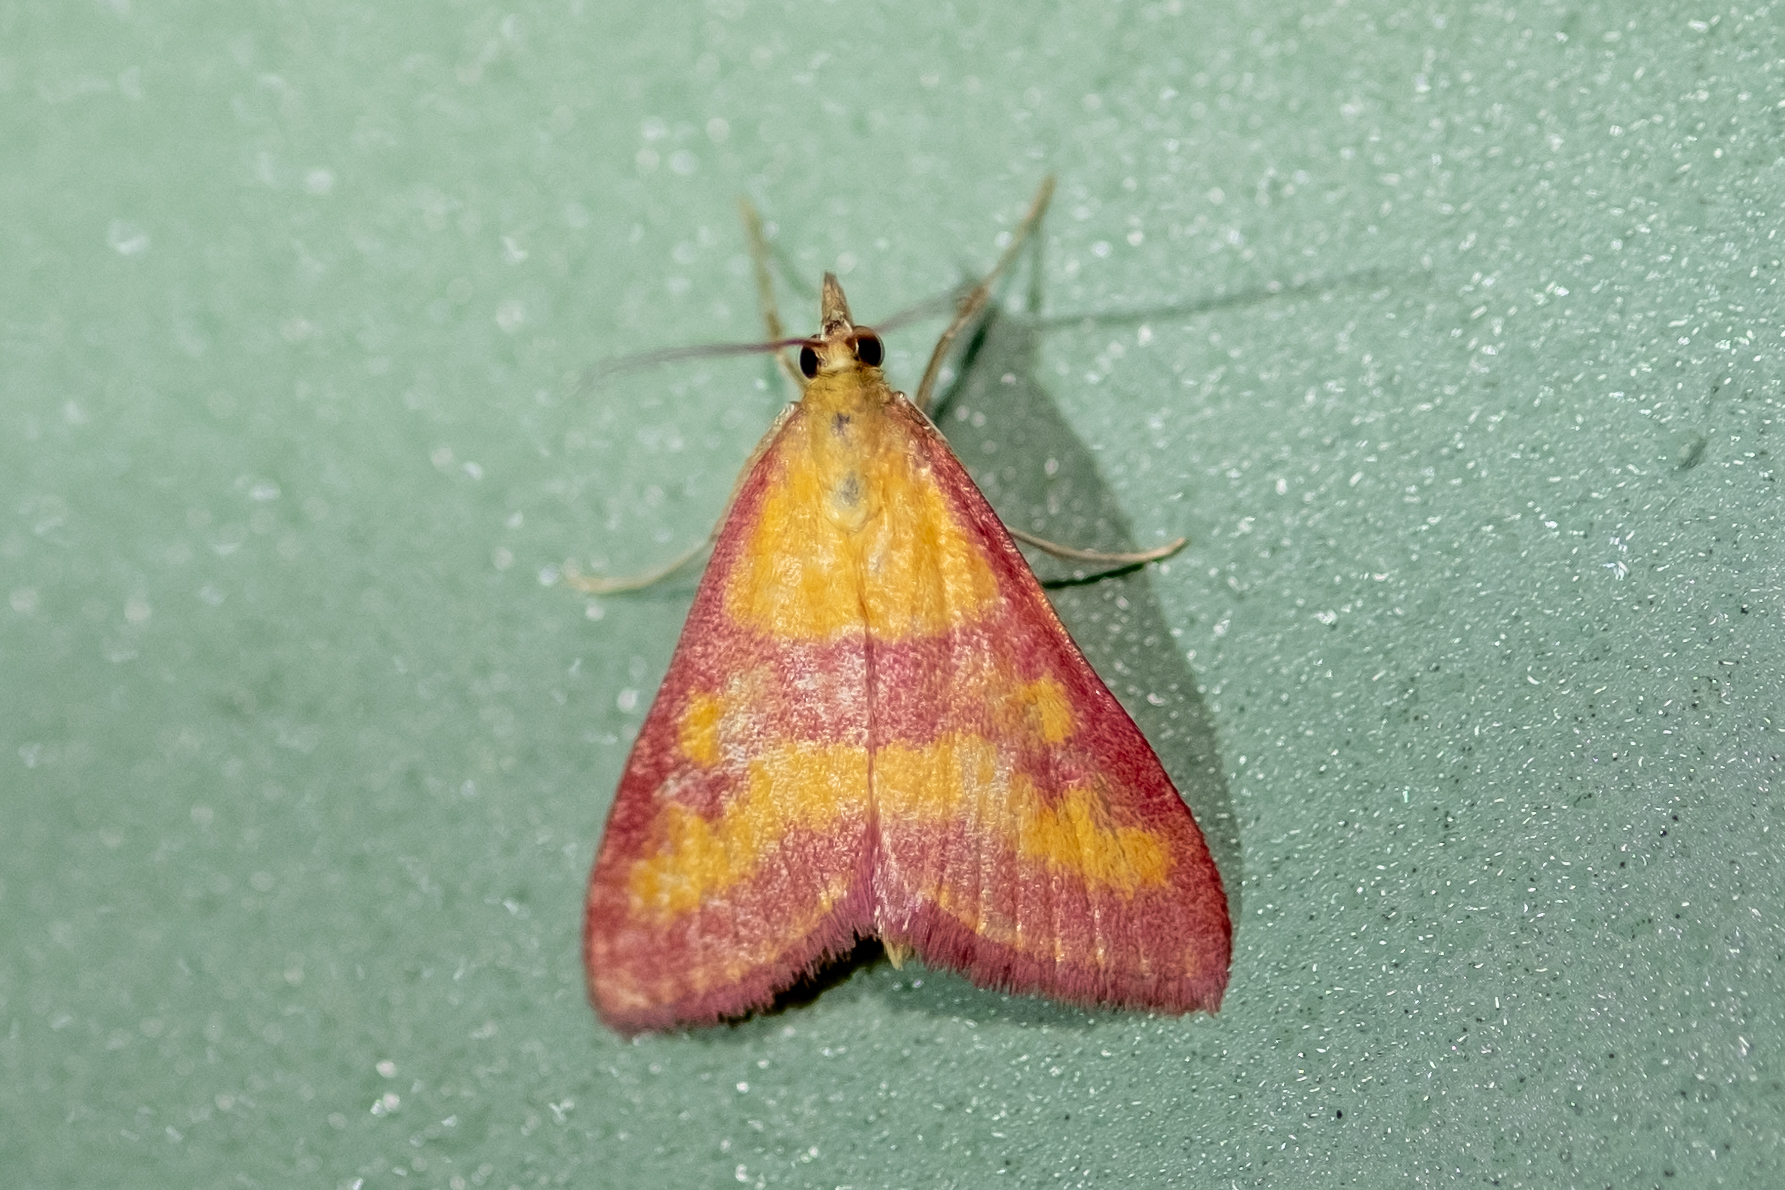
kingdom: Animalia
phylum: Arthropoda
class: Insecta
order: Lepidoptera
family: Crambidae
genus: Pyrausta
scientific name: Pyrausta laticlavia
